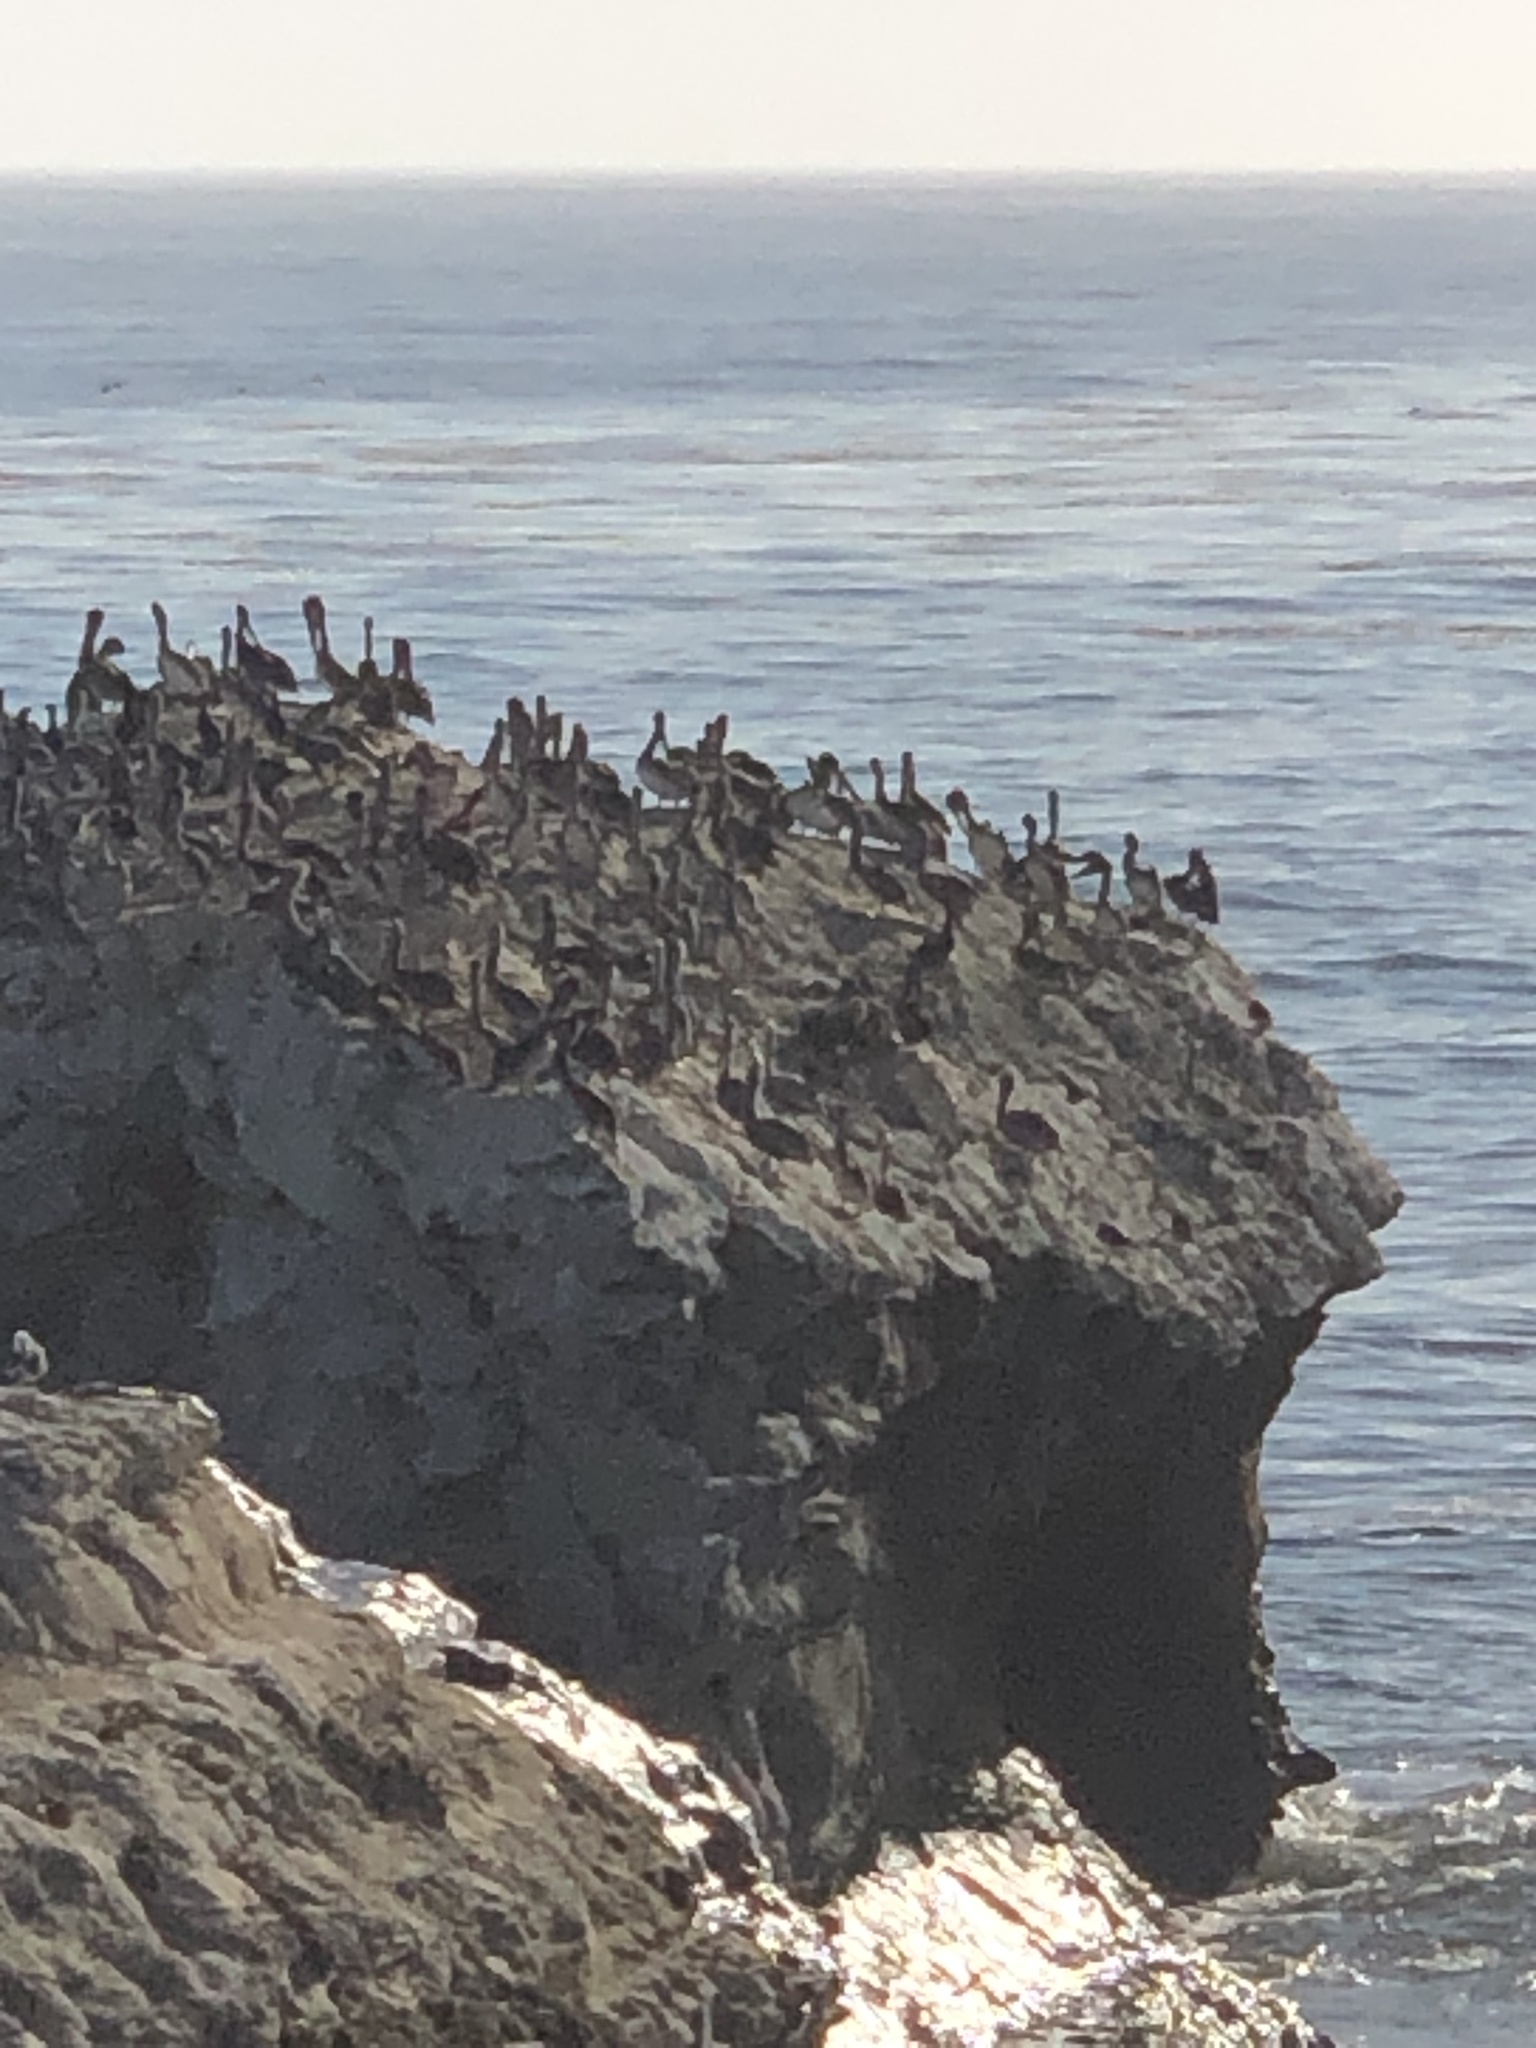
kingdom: Animalia
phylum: Chordata
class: Aves
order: Pelecaniformes
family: Pelecanidae
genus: Pelecanus
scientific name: Pelecanus occidentalis
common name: Brown pelican
